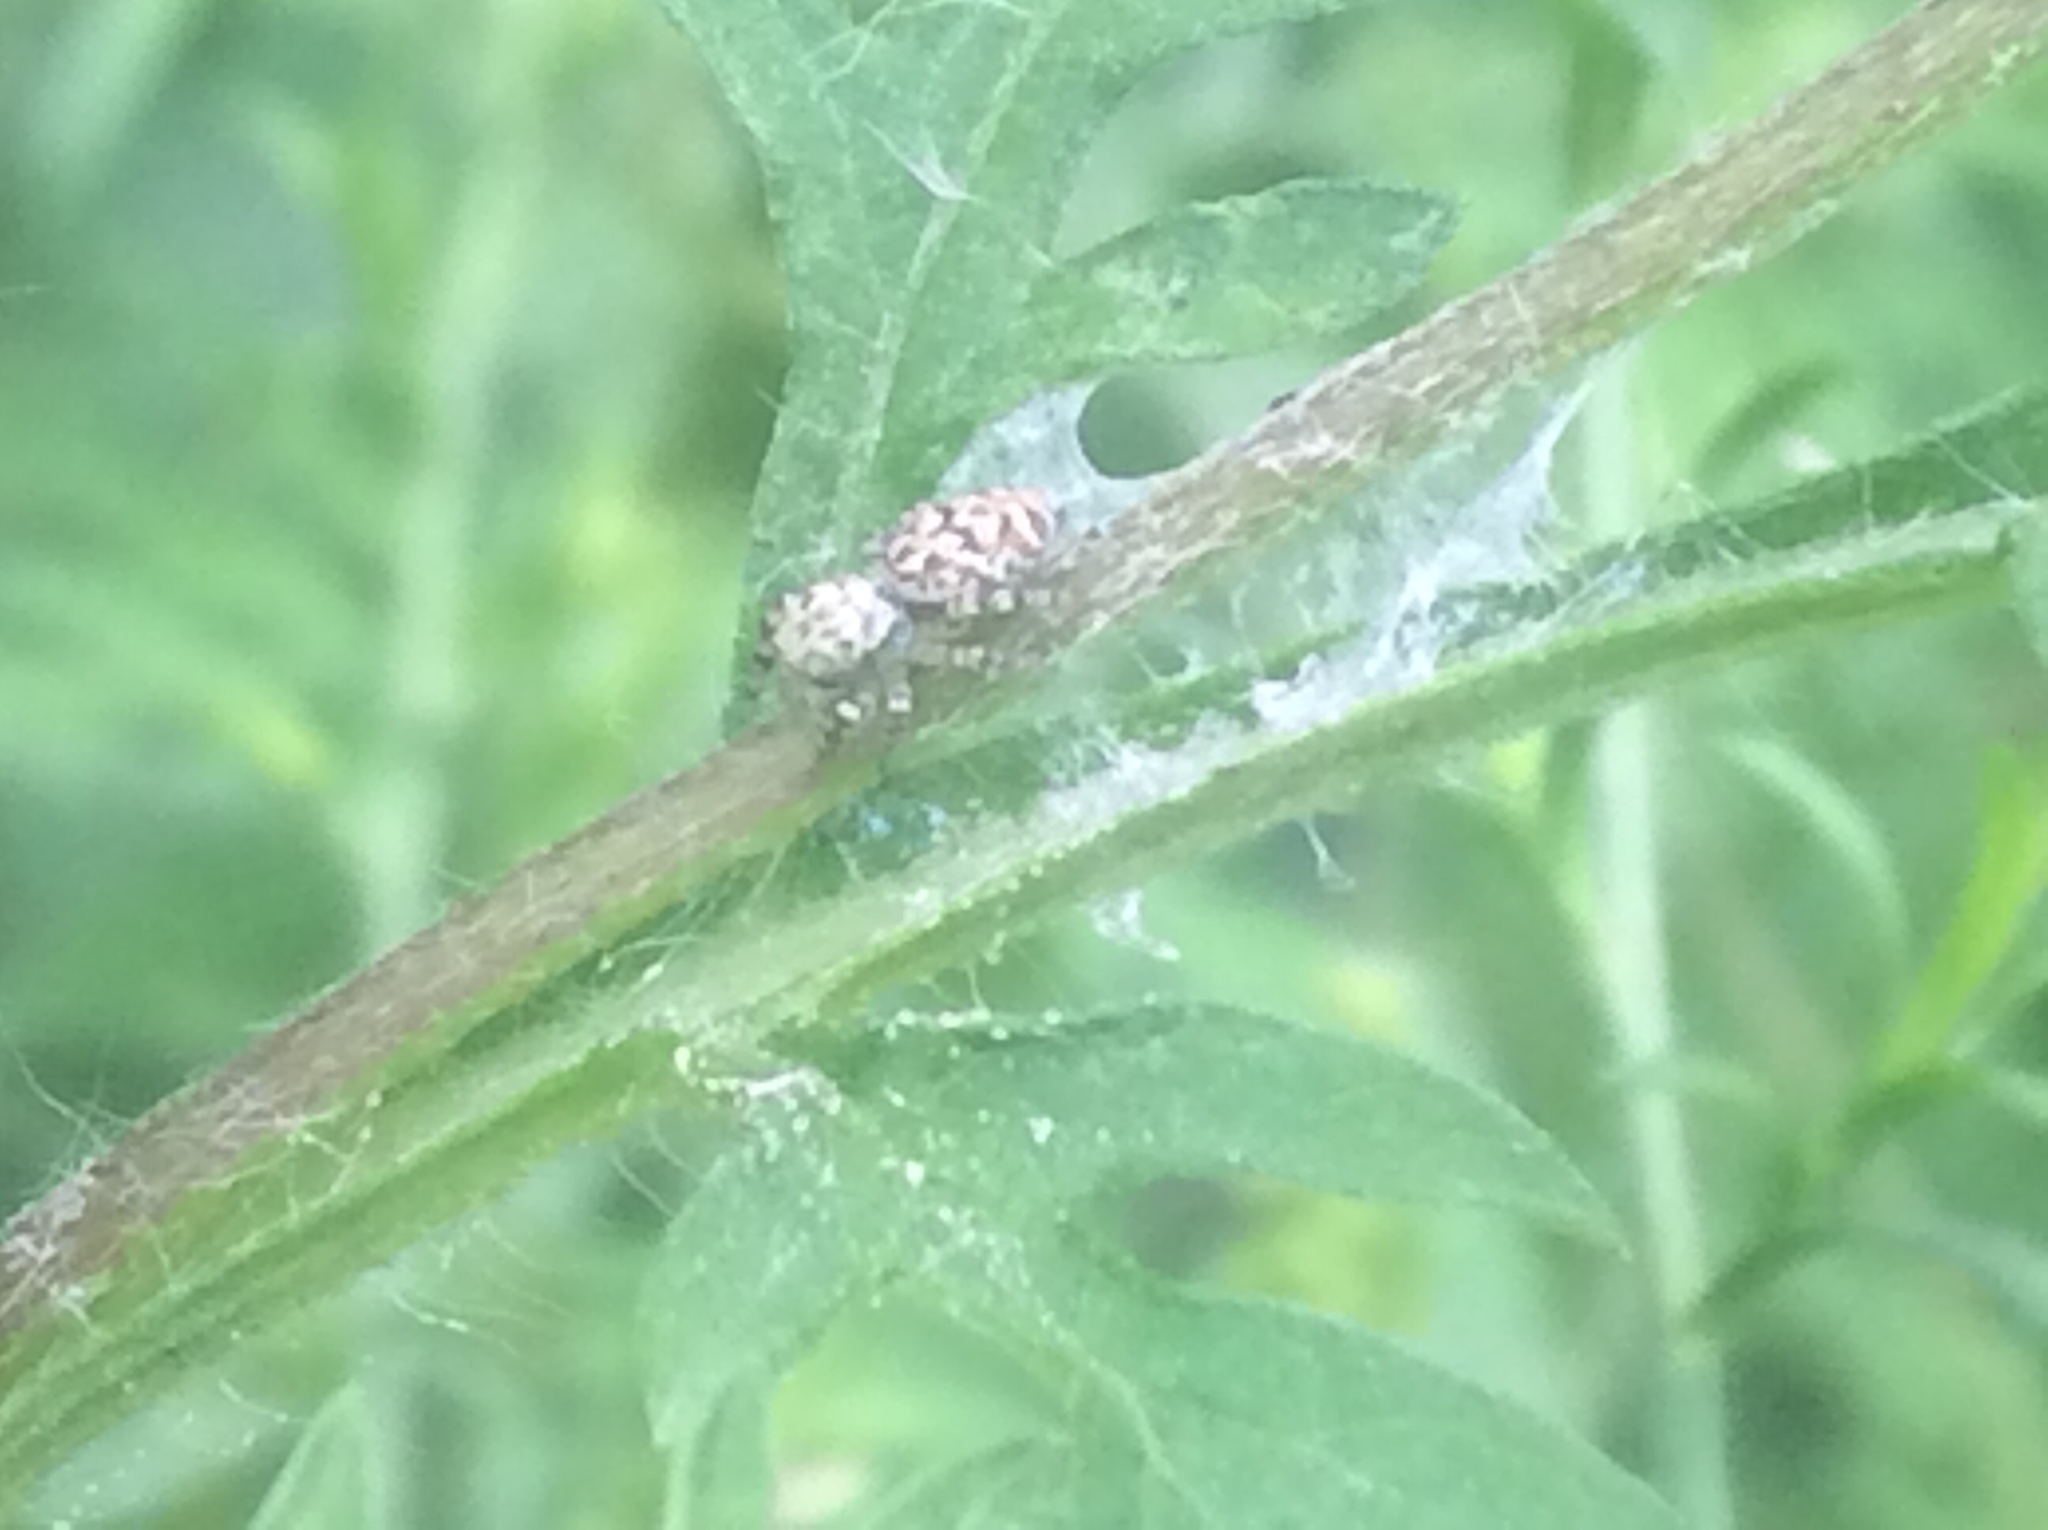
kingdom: Animalia
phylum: Arthropoda
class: Arachnida
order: Araneae
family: Salticidae
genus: Pelegrina
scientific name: Pelegrina galathea
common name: Jumping spiders
